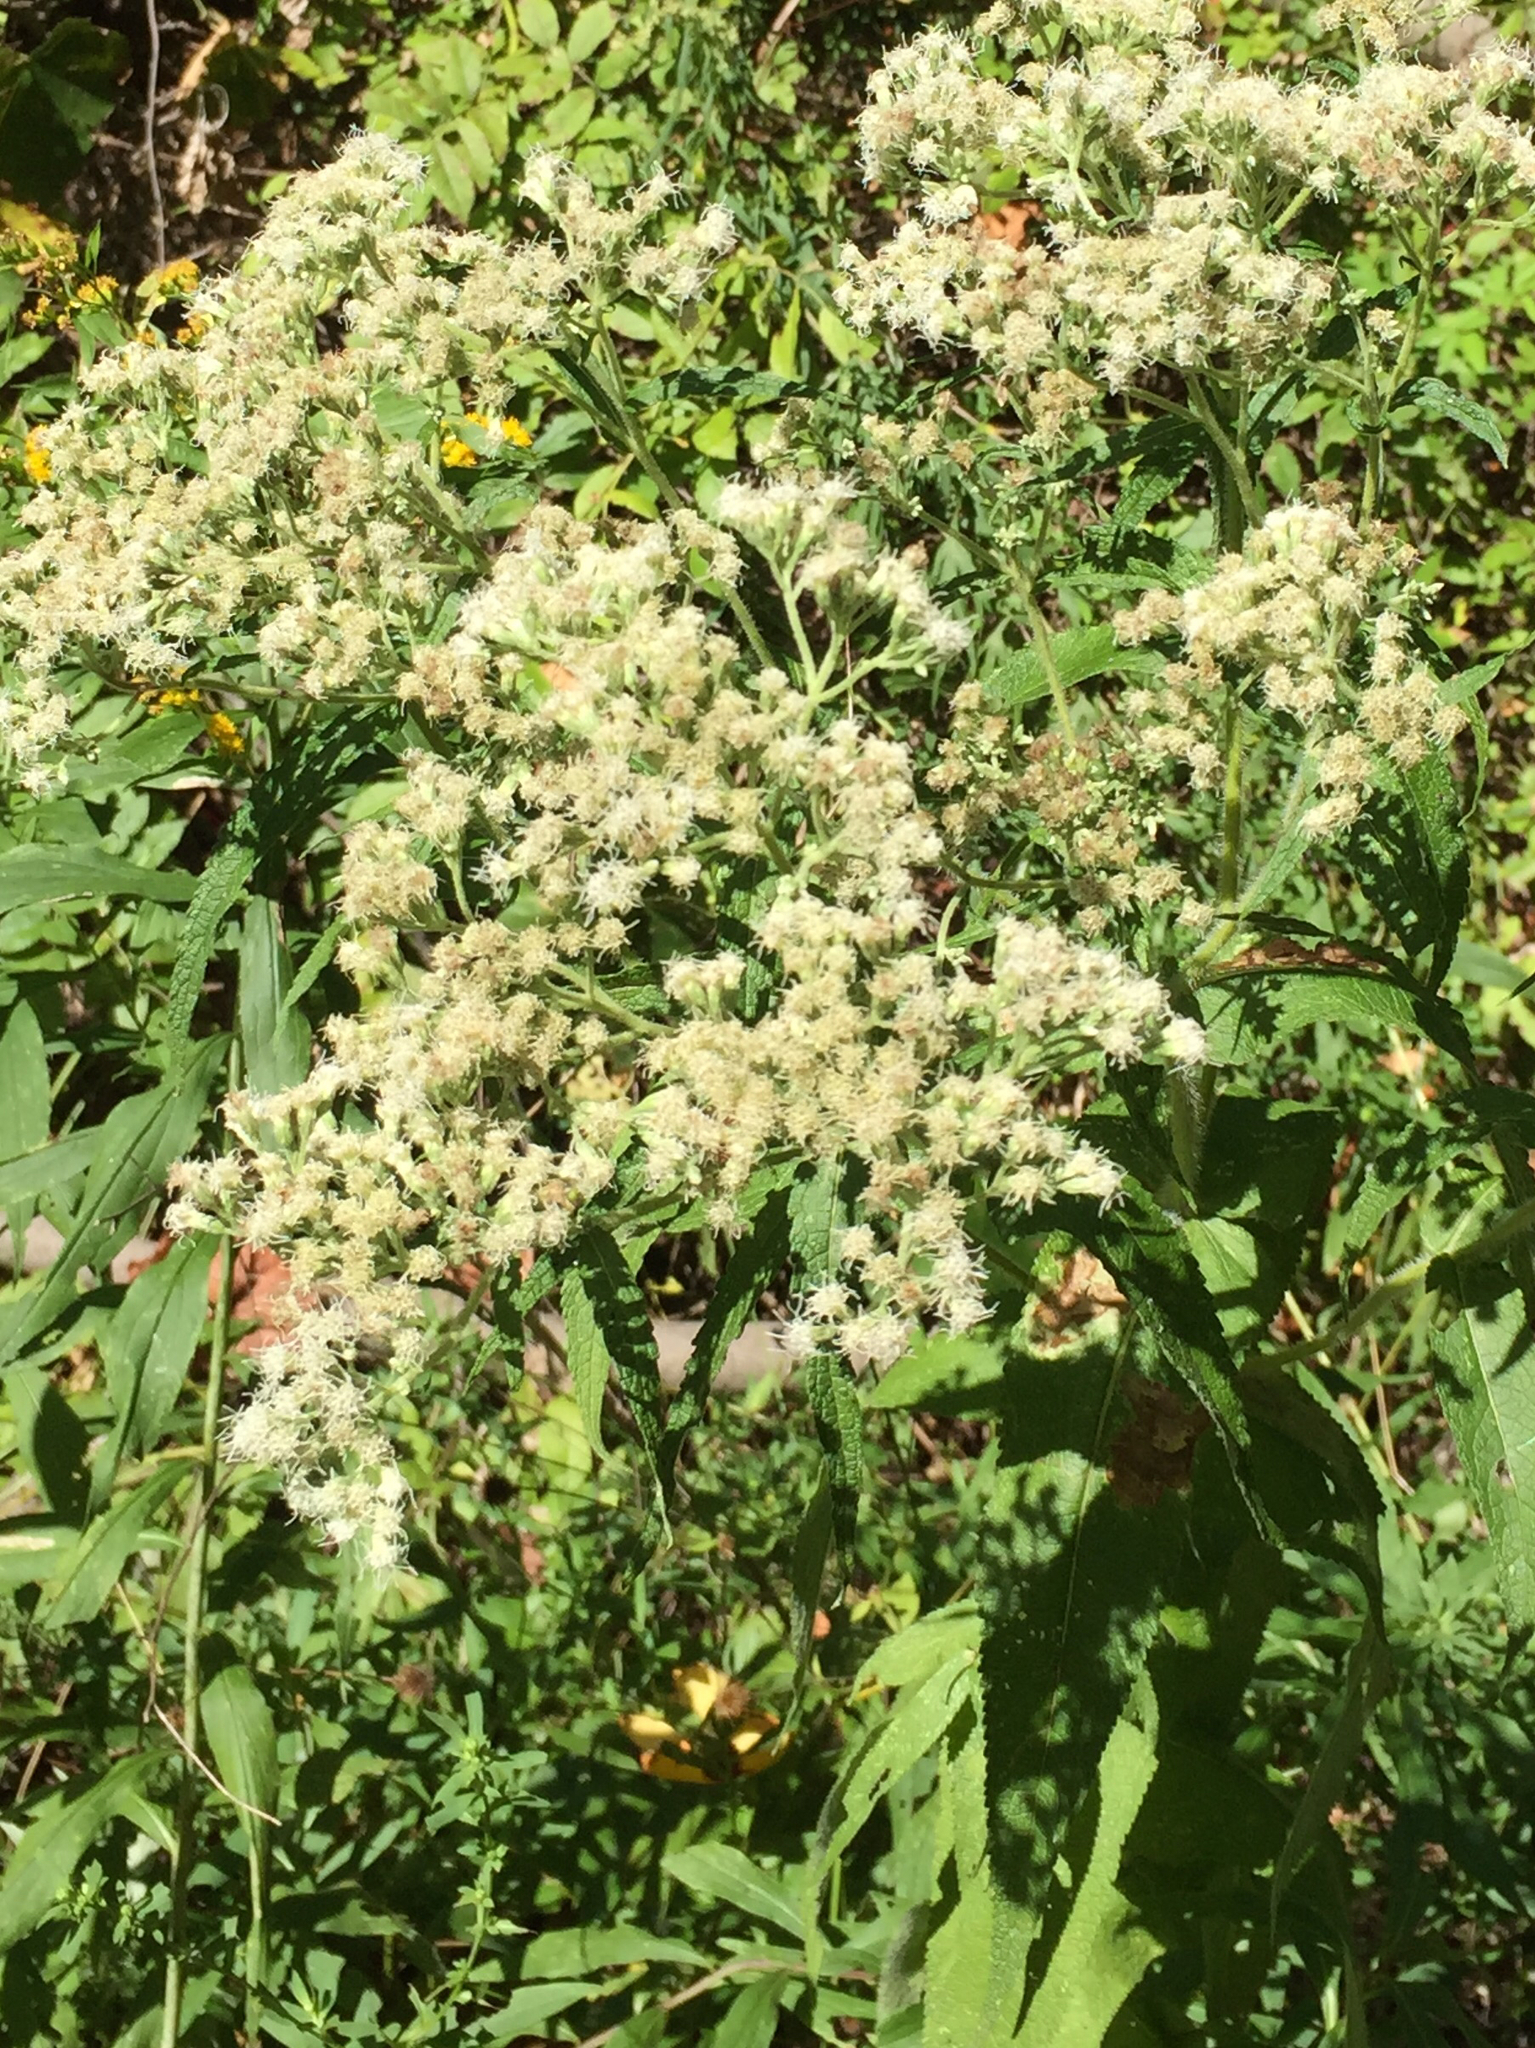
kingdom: Plantae
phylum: Tracheophyta
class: Magnoliopsida
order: Asterales
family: Asteraceae
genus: Eupatorium
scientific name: Eupatorium perfoliatum
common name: Boneset
